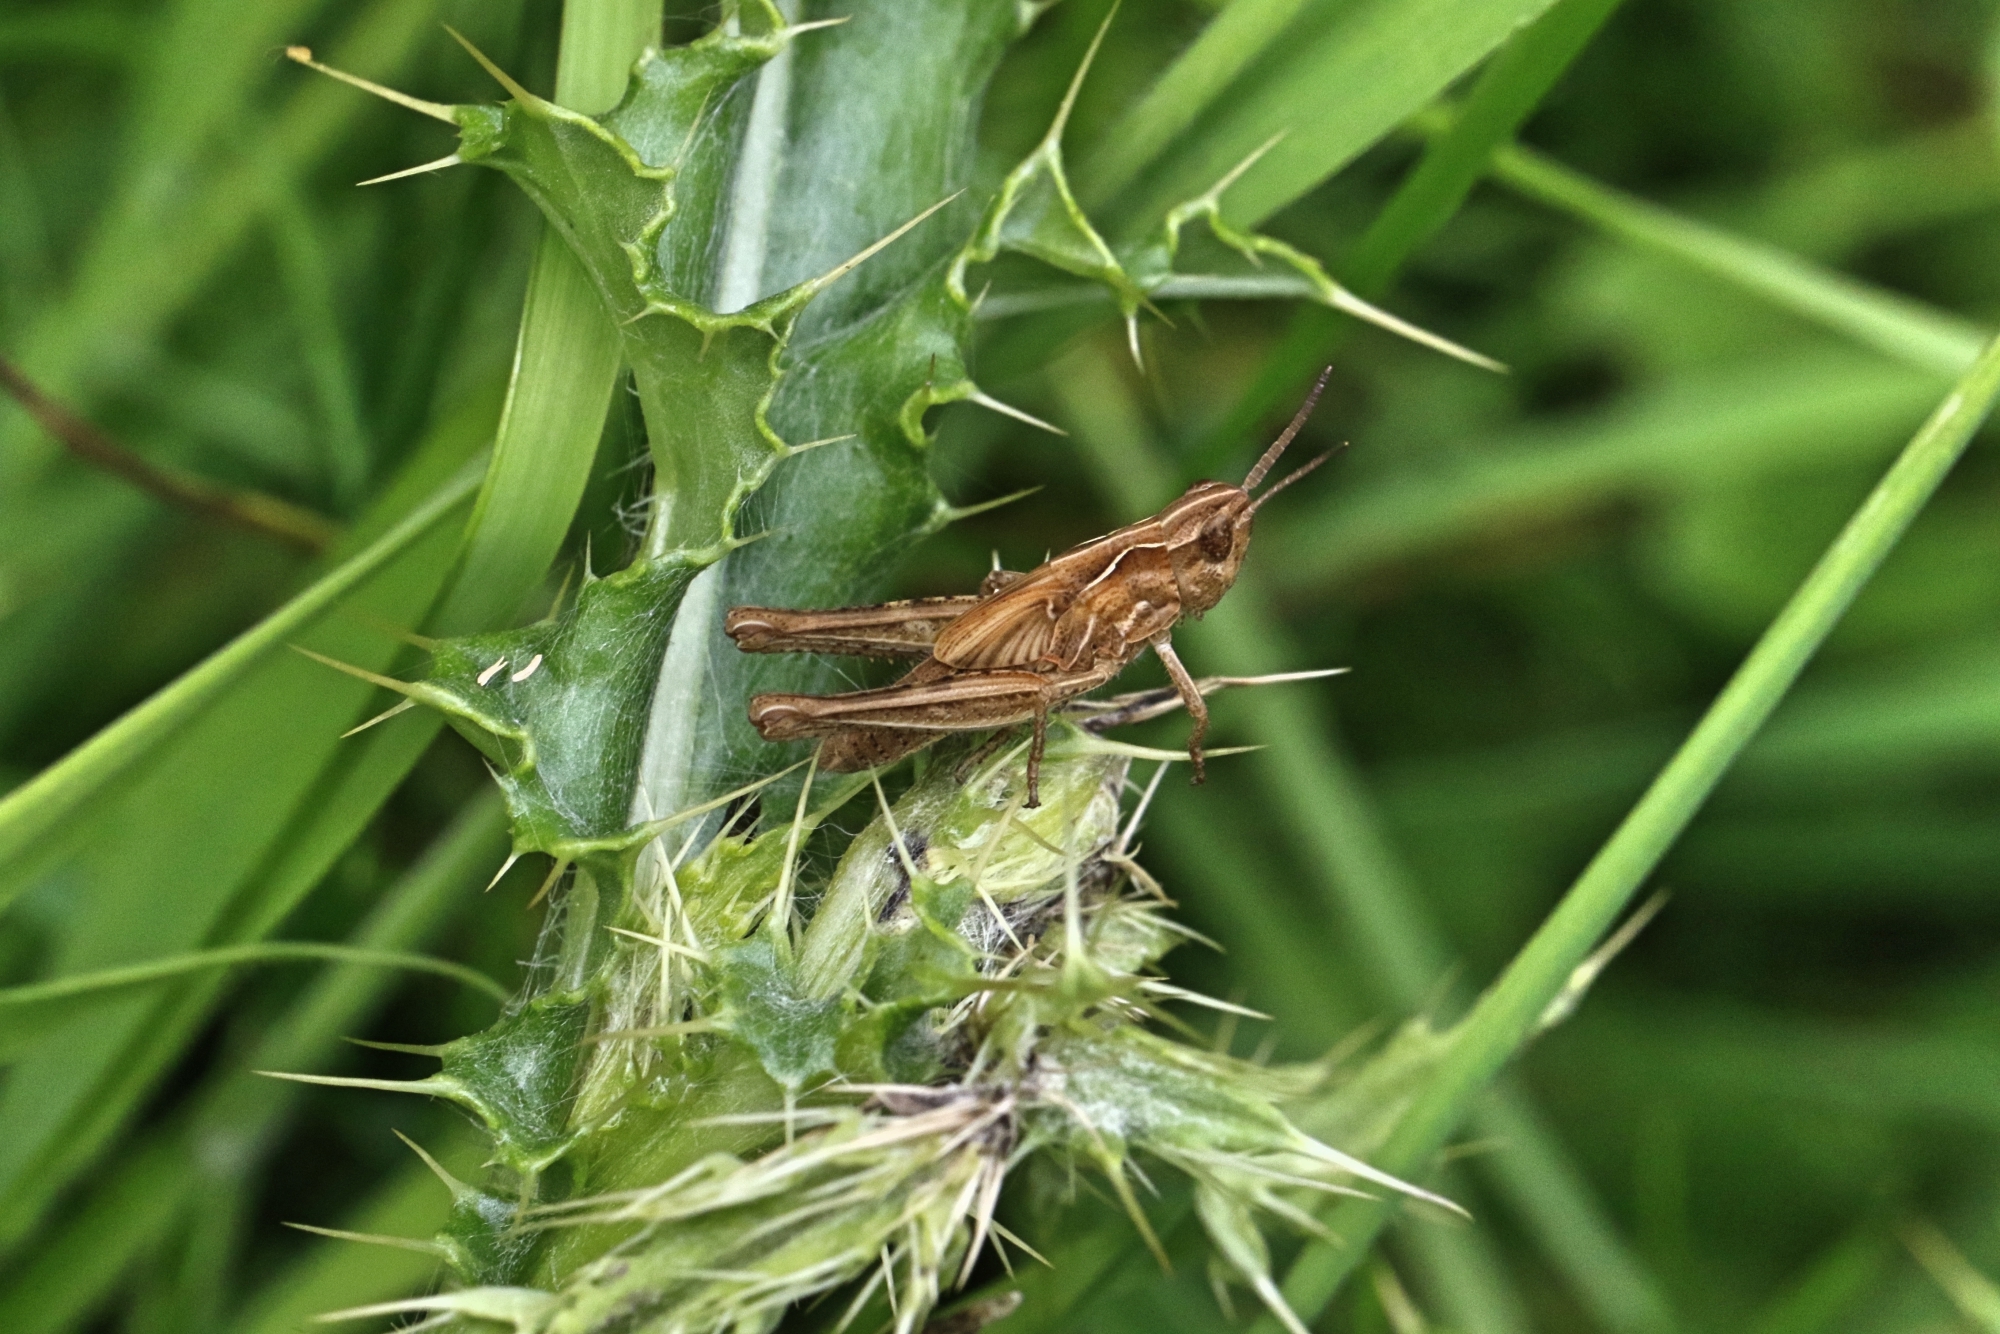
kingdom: Animalia
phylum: Arthropoda
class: Insecta
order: Orthoptera
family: Acrididae
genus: Chorthippus
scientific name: Chorthippus brunneus
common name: Field grasshopper
